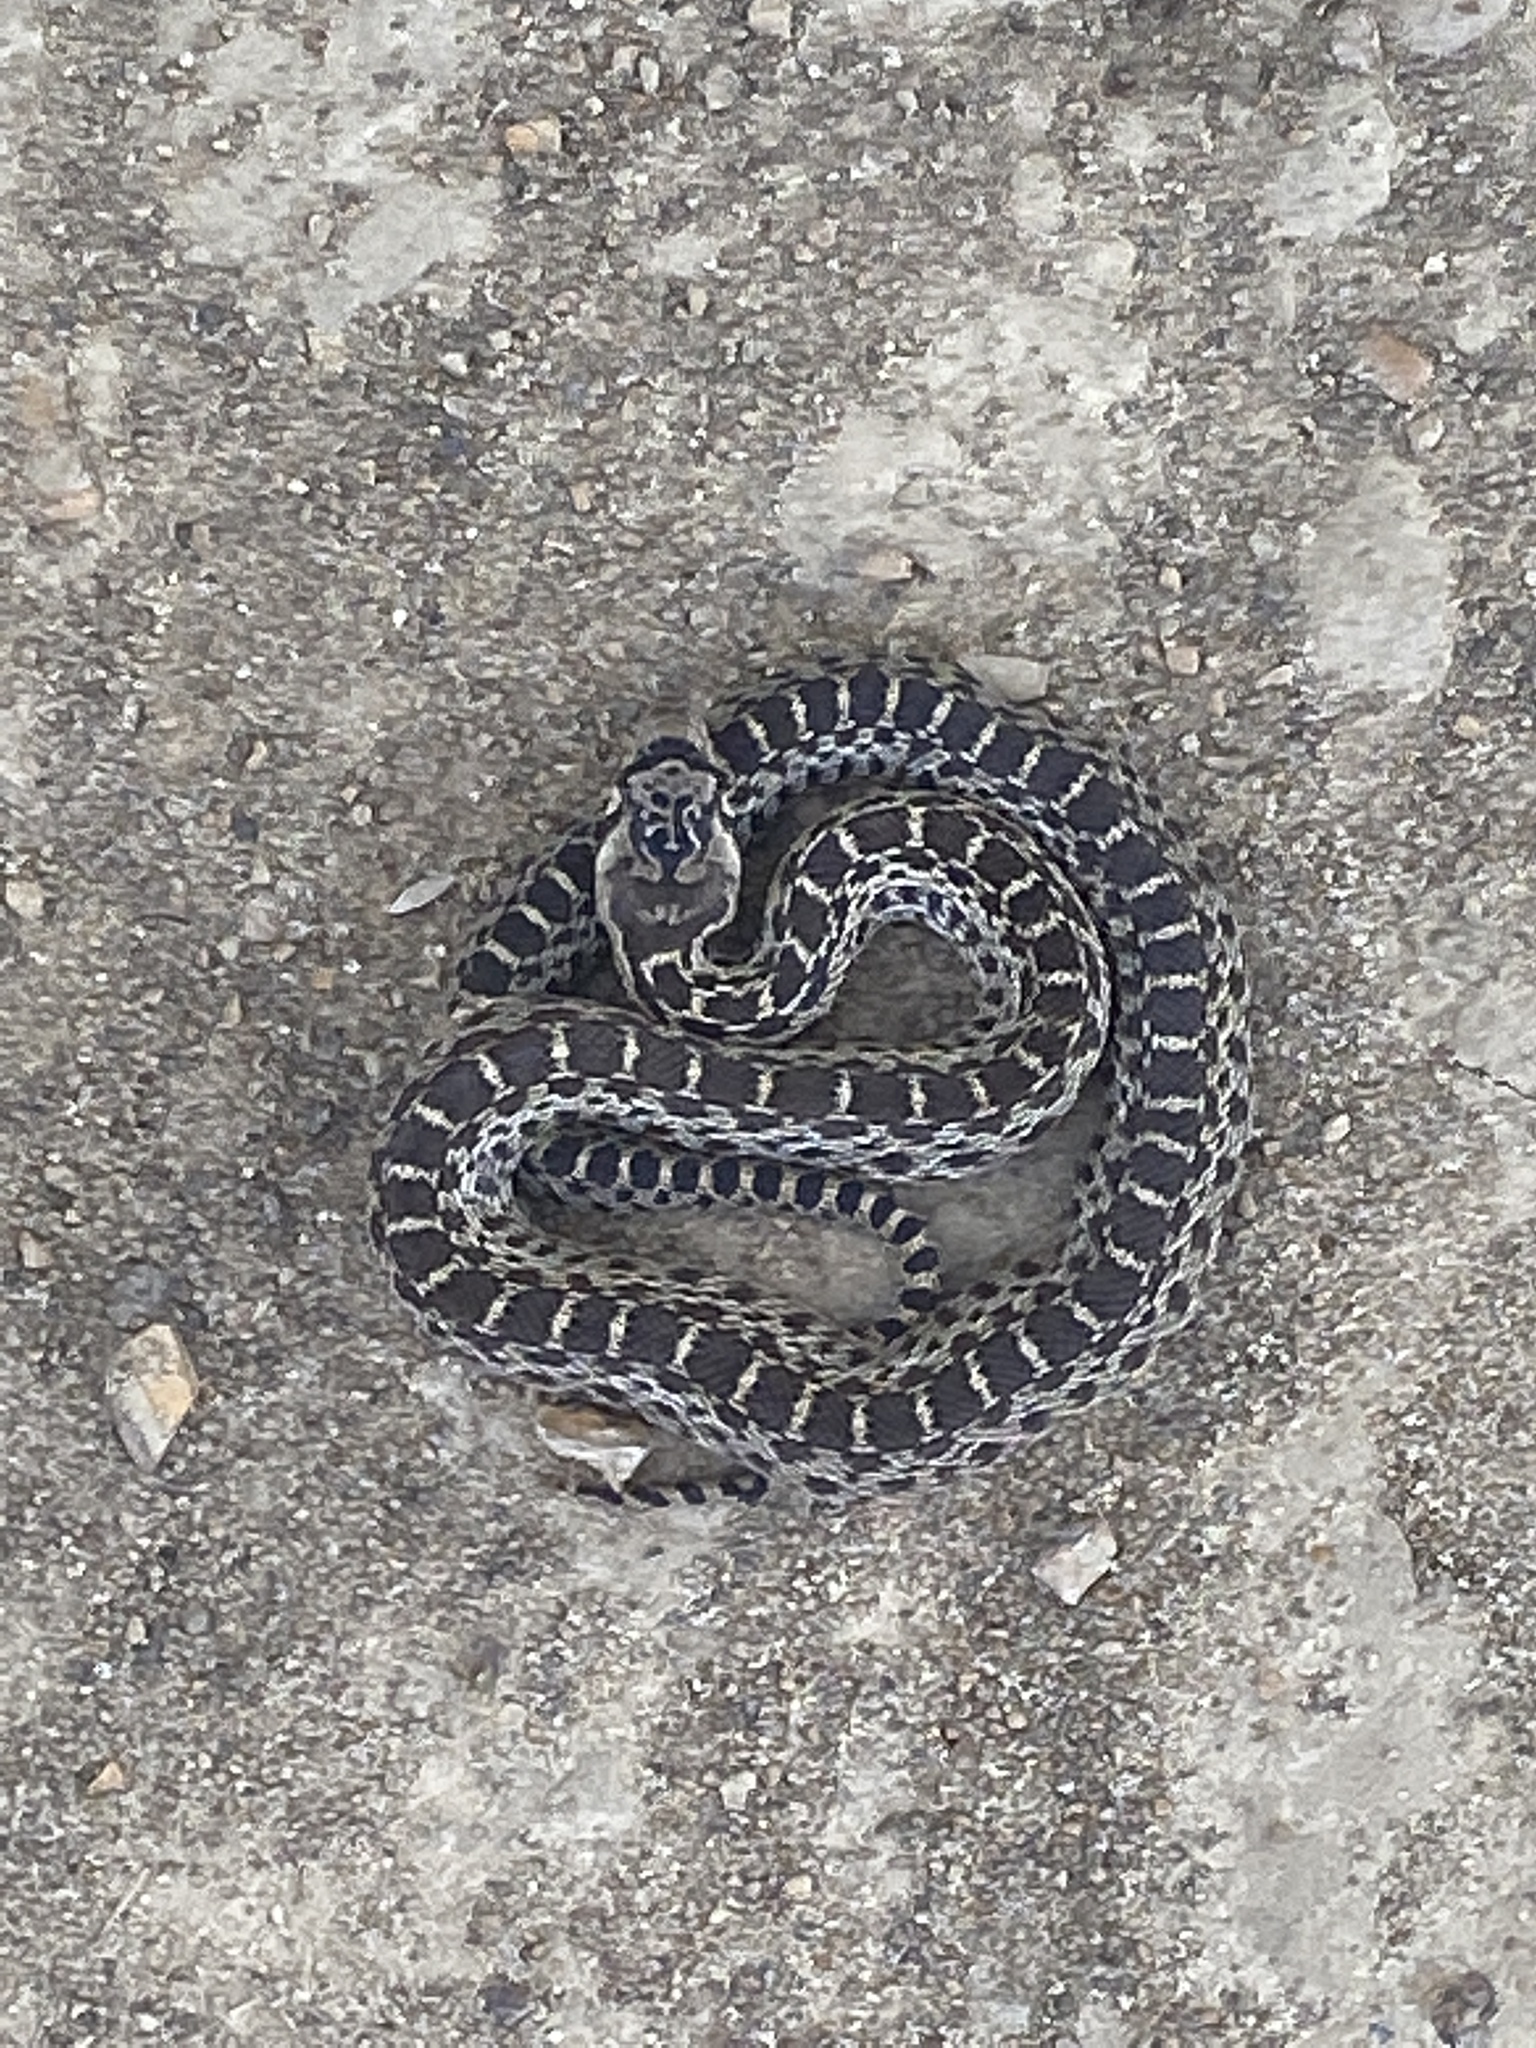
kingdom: Animalia
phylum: Chordata
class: Squamata
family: Colubridae
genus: Pituophis
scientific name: Pituophis catenifer
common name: Gopher snake
